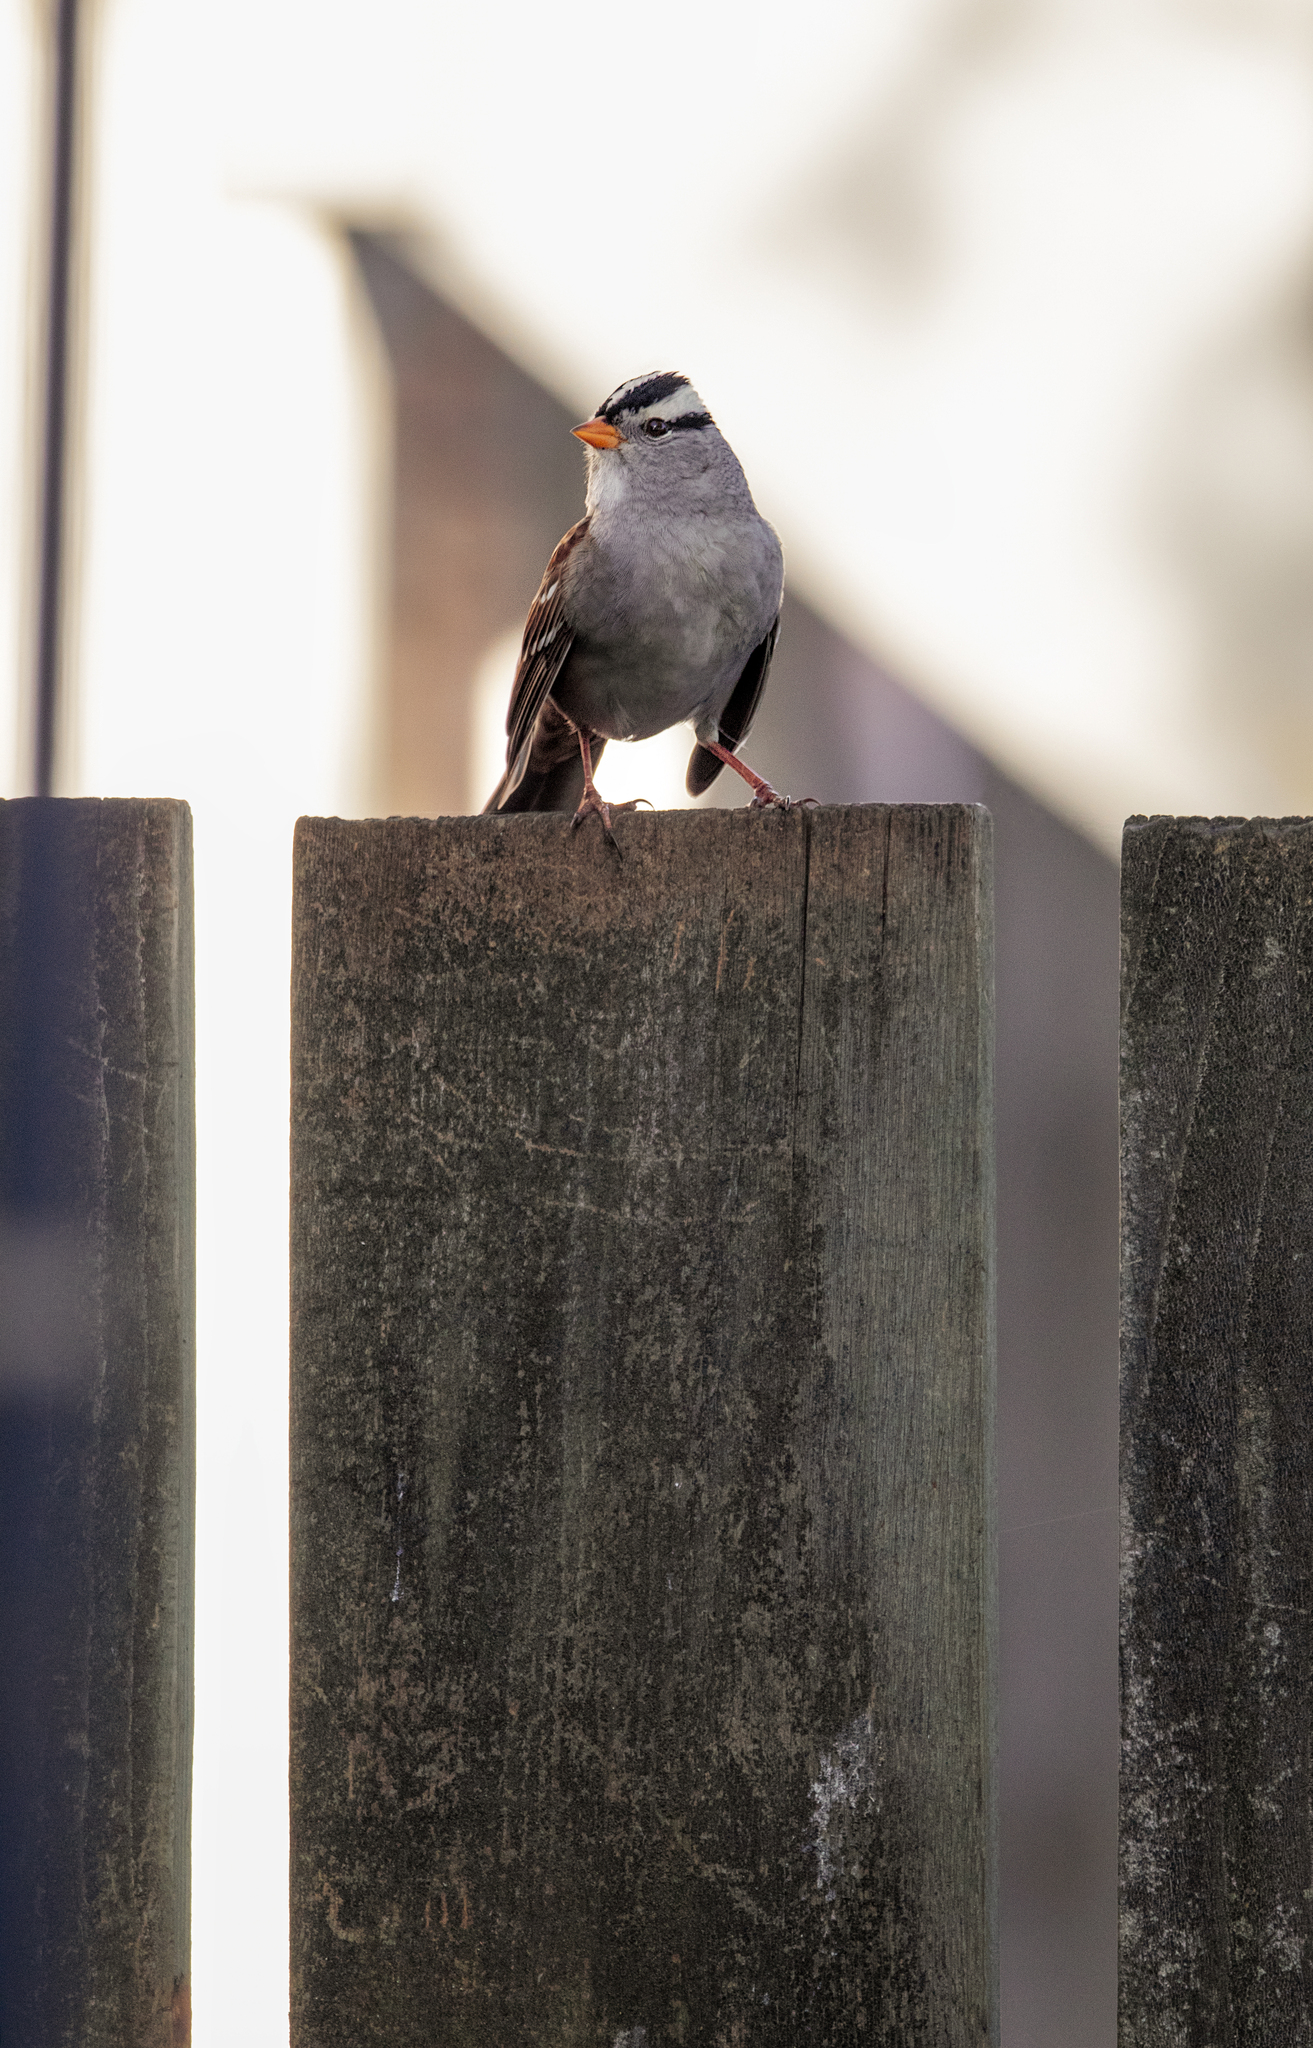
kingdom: Animalia
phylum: Chordata
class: Aves
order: Passeriformes
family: Passerellidae
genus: Zonotrichia
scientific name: Zonotrichia leucophrys
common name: White-crowned sparrow
